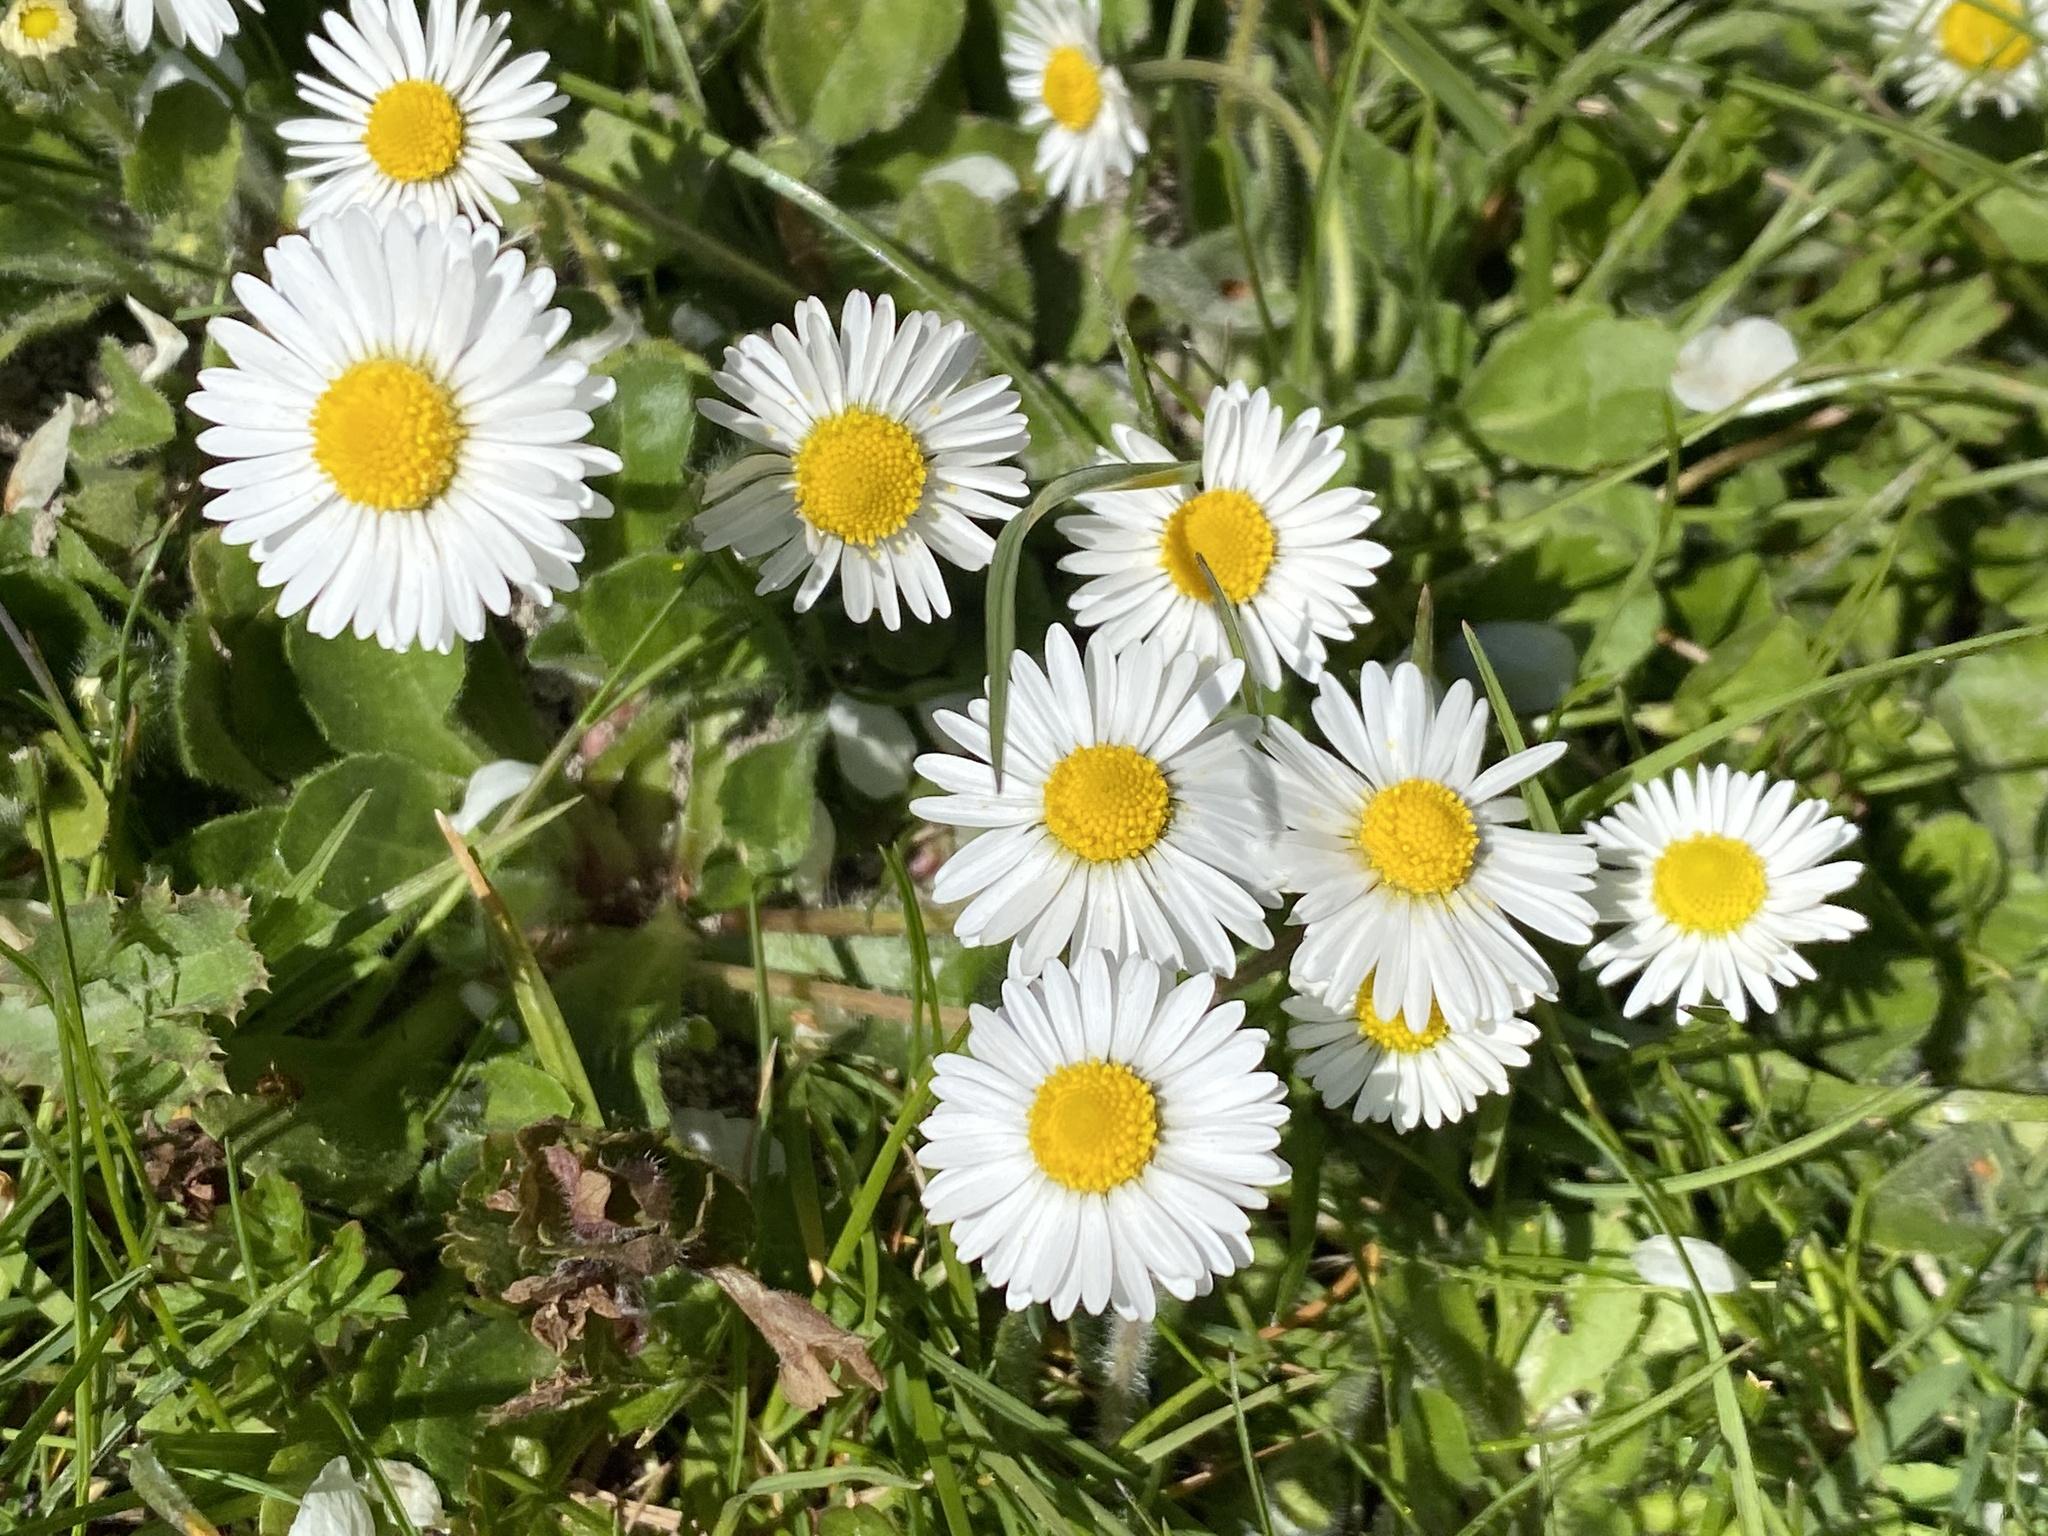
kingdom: Plantae
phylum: Tracheophyta
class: Magnoliopsida
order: Asterales
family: Asteraceae
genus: Bellis
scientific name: Bellis perennis
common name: Lawndaisy
